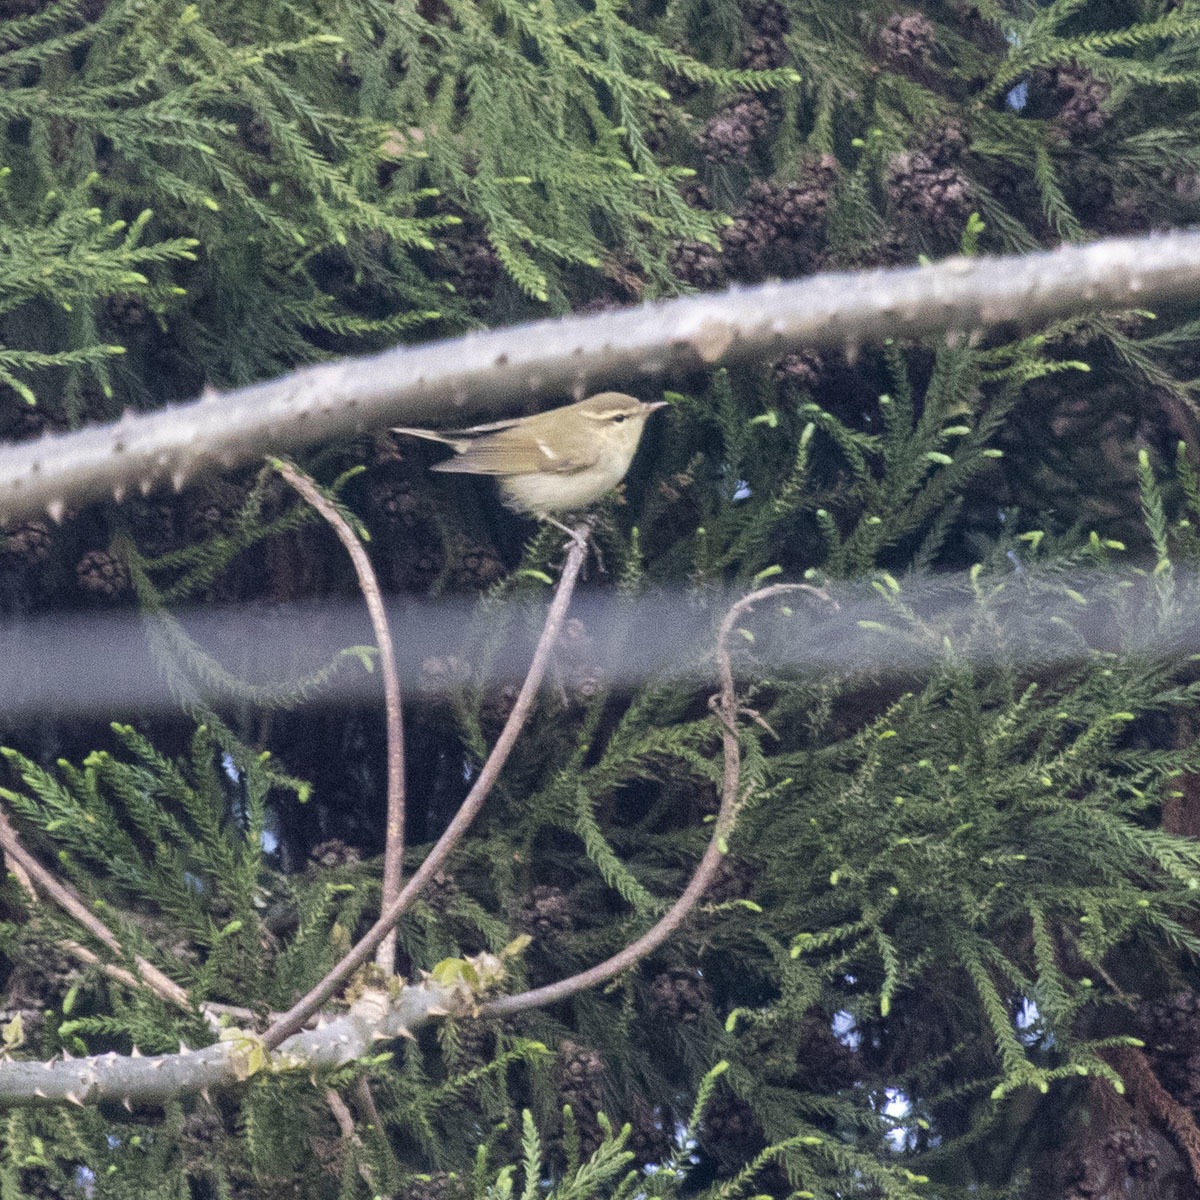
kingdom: Animalia
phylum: Chordata
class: Aves
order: Passeriformes
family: Phylloscopidae
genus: Phylloscopus
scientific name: Phylloscopus trochiloides
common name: Greenish warbler
